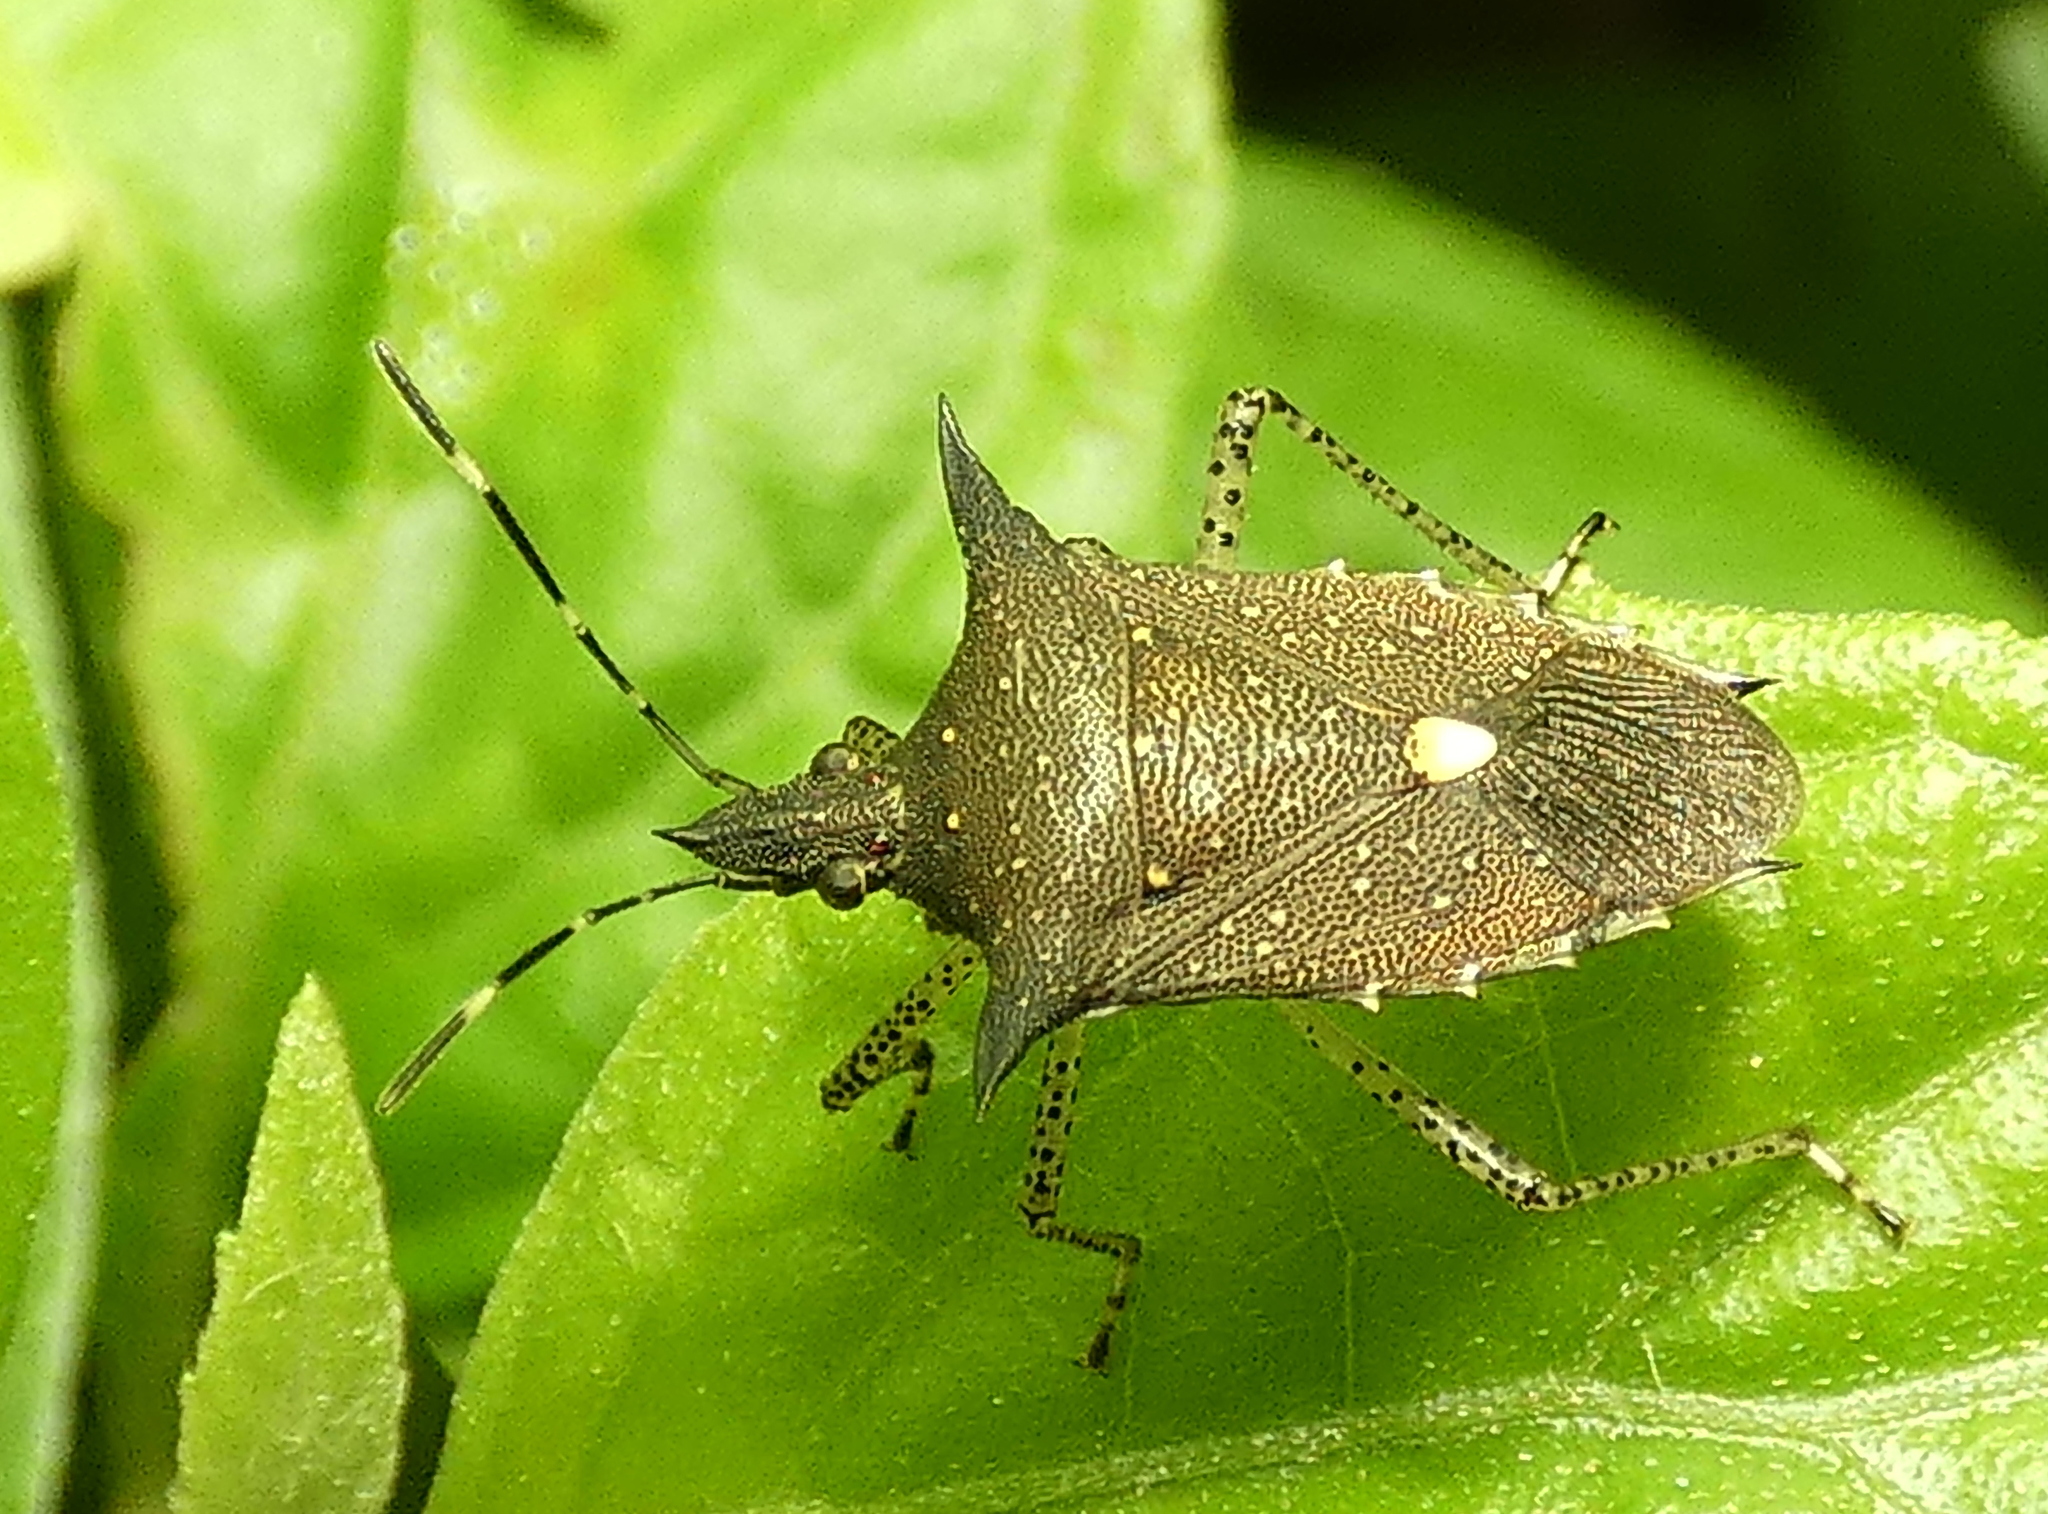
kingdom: Animalia
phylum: Arthropoda
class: Insecta
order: Hemiptera
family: Pentatomidae
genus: Proxys
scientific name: Proxys albopunctulatus
